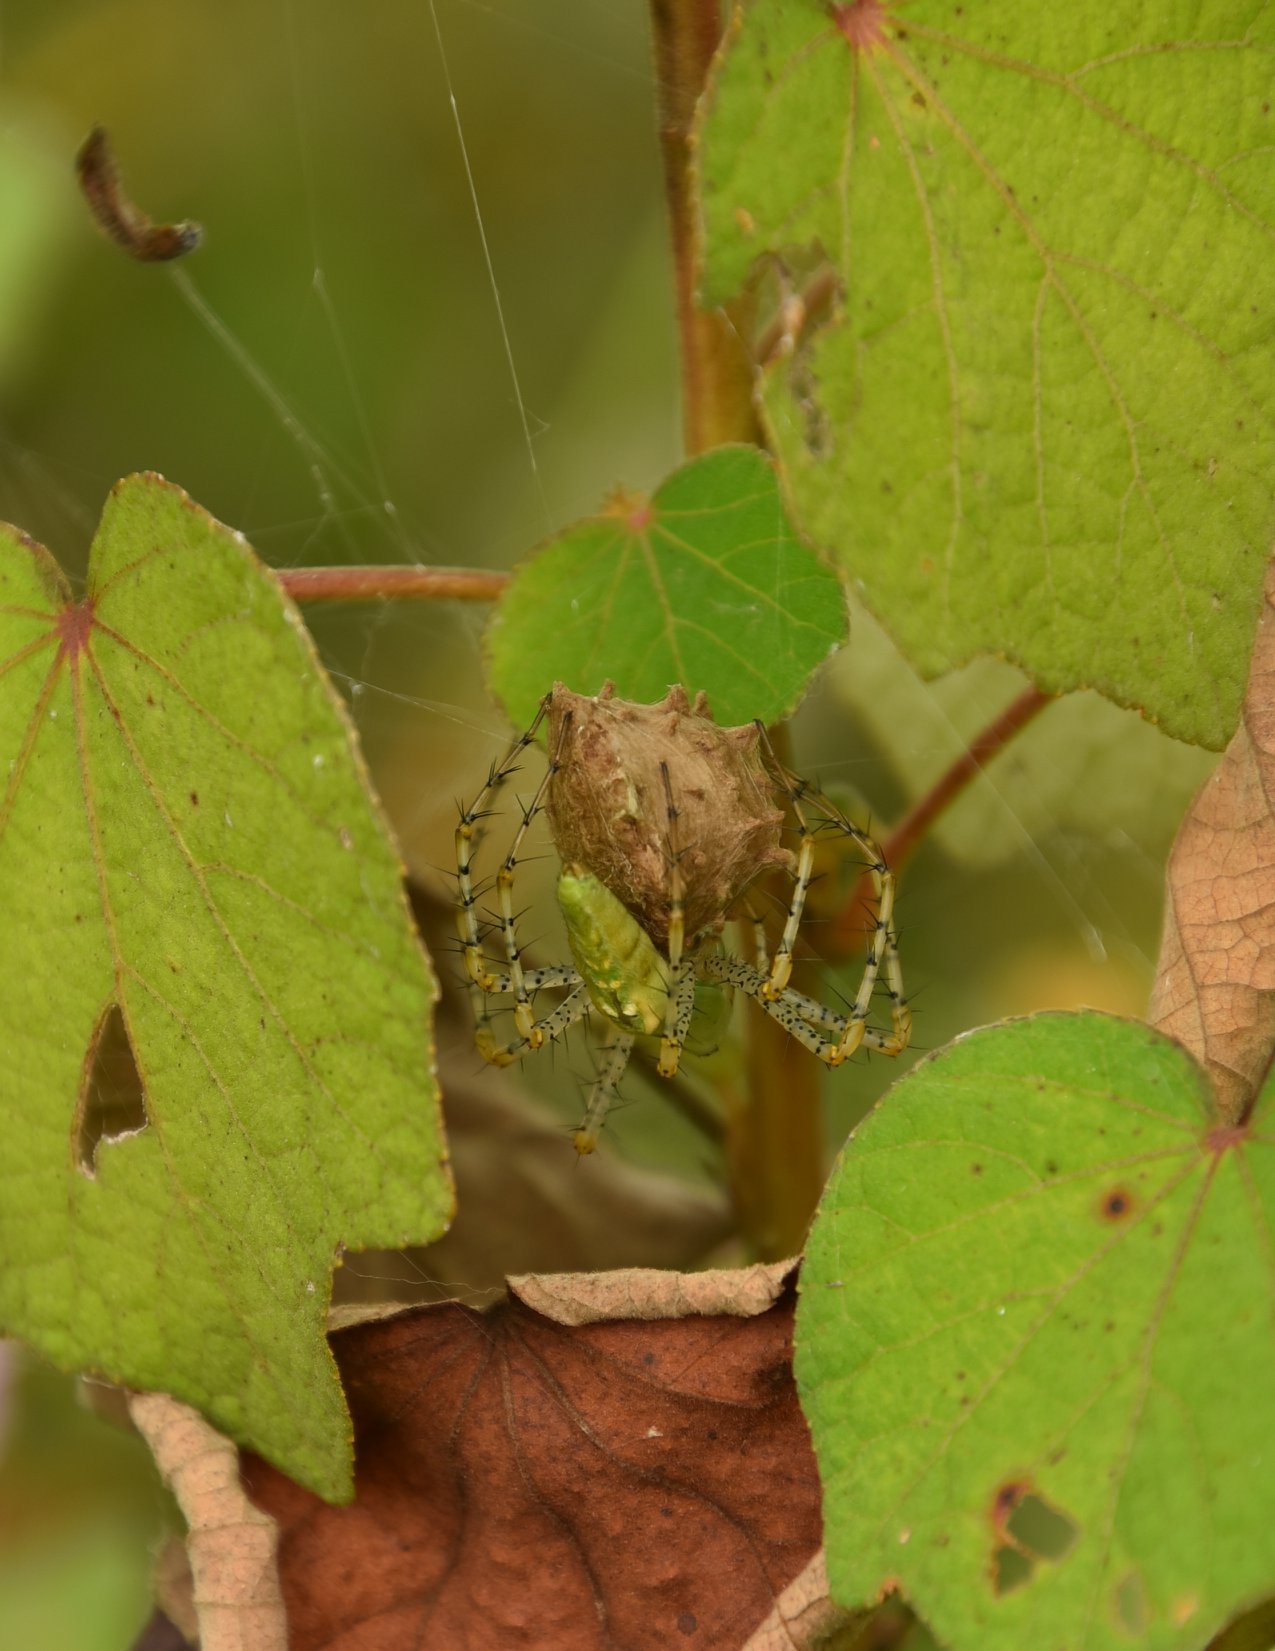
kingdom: Animalia
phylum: Arthropoda
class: Arachnida
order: Araneae
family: Oxyopidae
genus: Peucetia
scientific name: Peucetia viridans
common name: Lynx spiders
